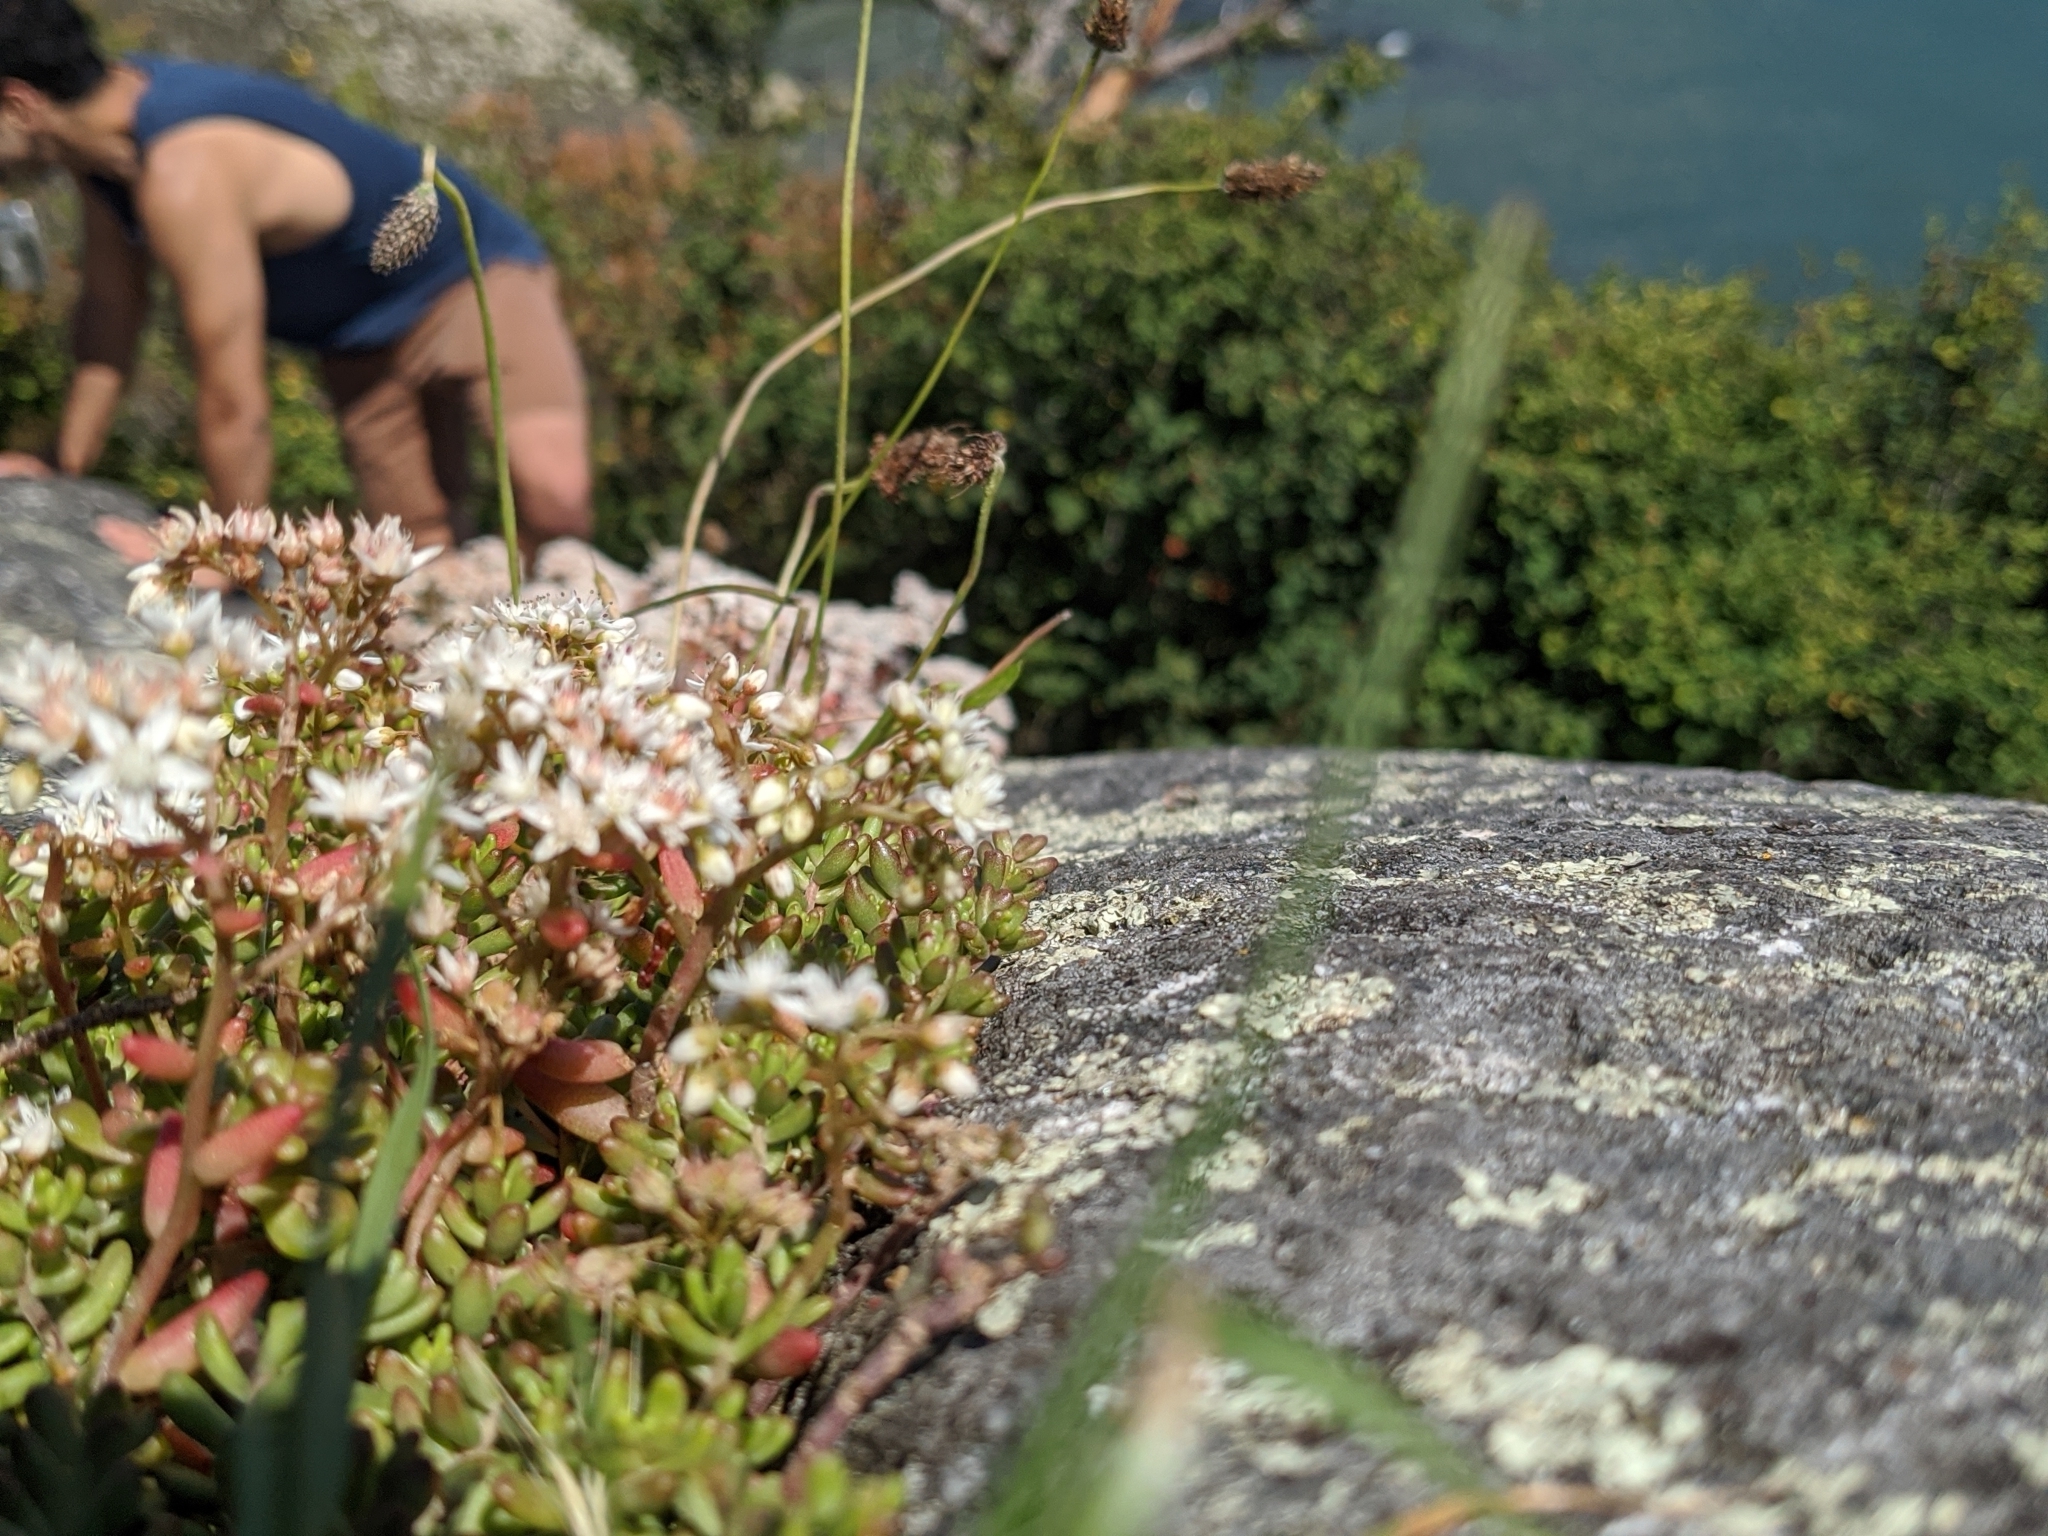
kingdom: Plantae
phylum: Tracheophyta
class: Magnoliopsida
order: Saxifragales
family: Crassulaceae
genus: Sedum
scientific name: Sedum album
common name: White stonecrop
